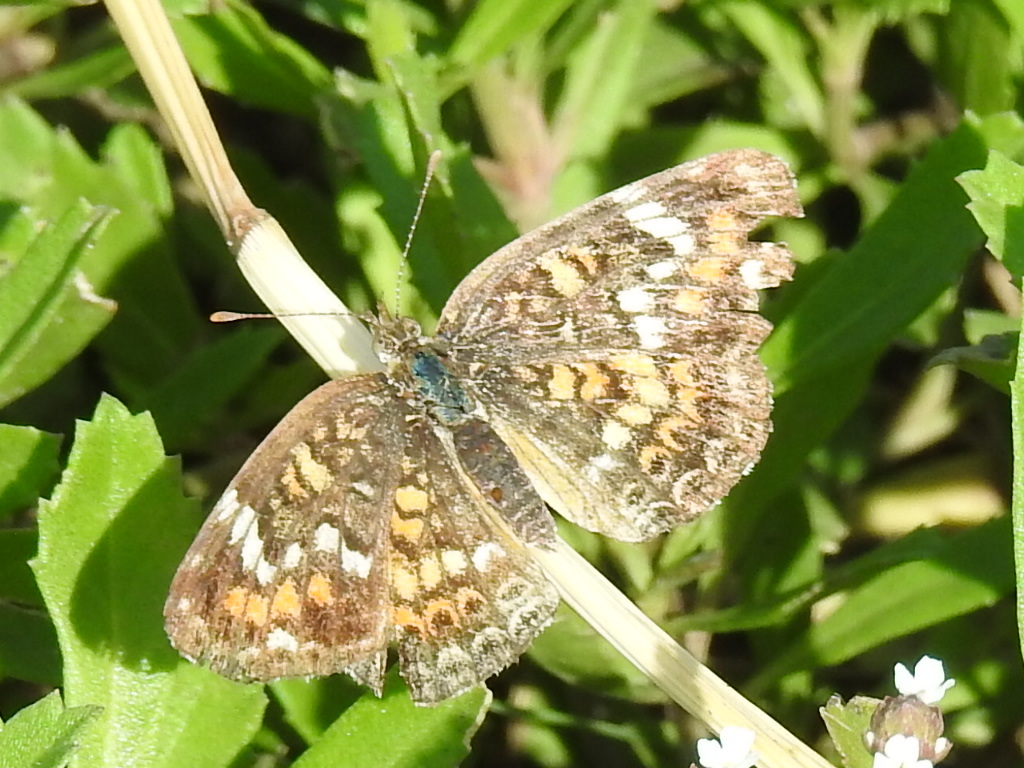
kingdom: Animalia
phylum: Arthropoda
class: Insecta
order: Lepidoptera
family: Nymphalidae
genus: Phyciodes
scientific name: Phyciodes phaon
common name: Phaon crescent
